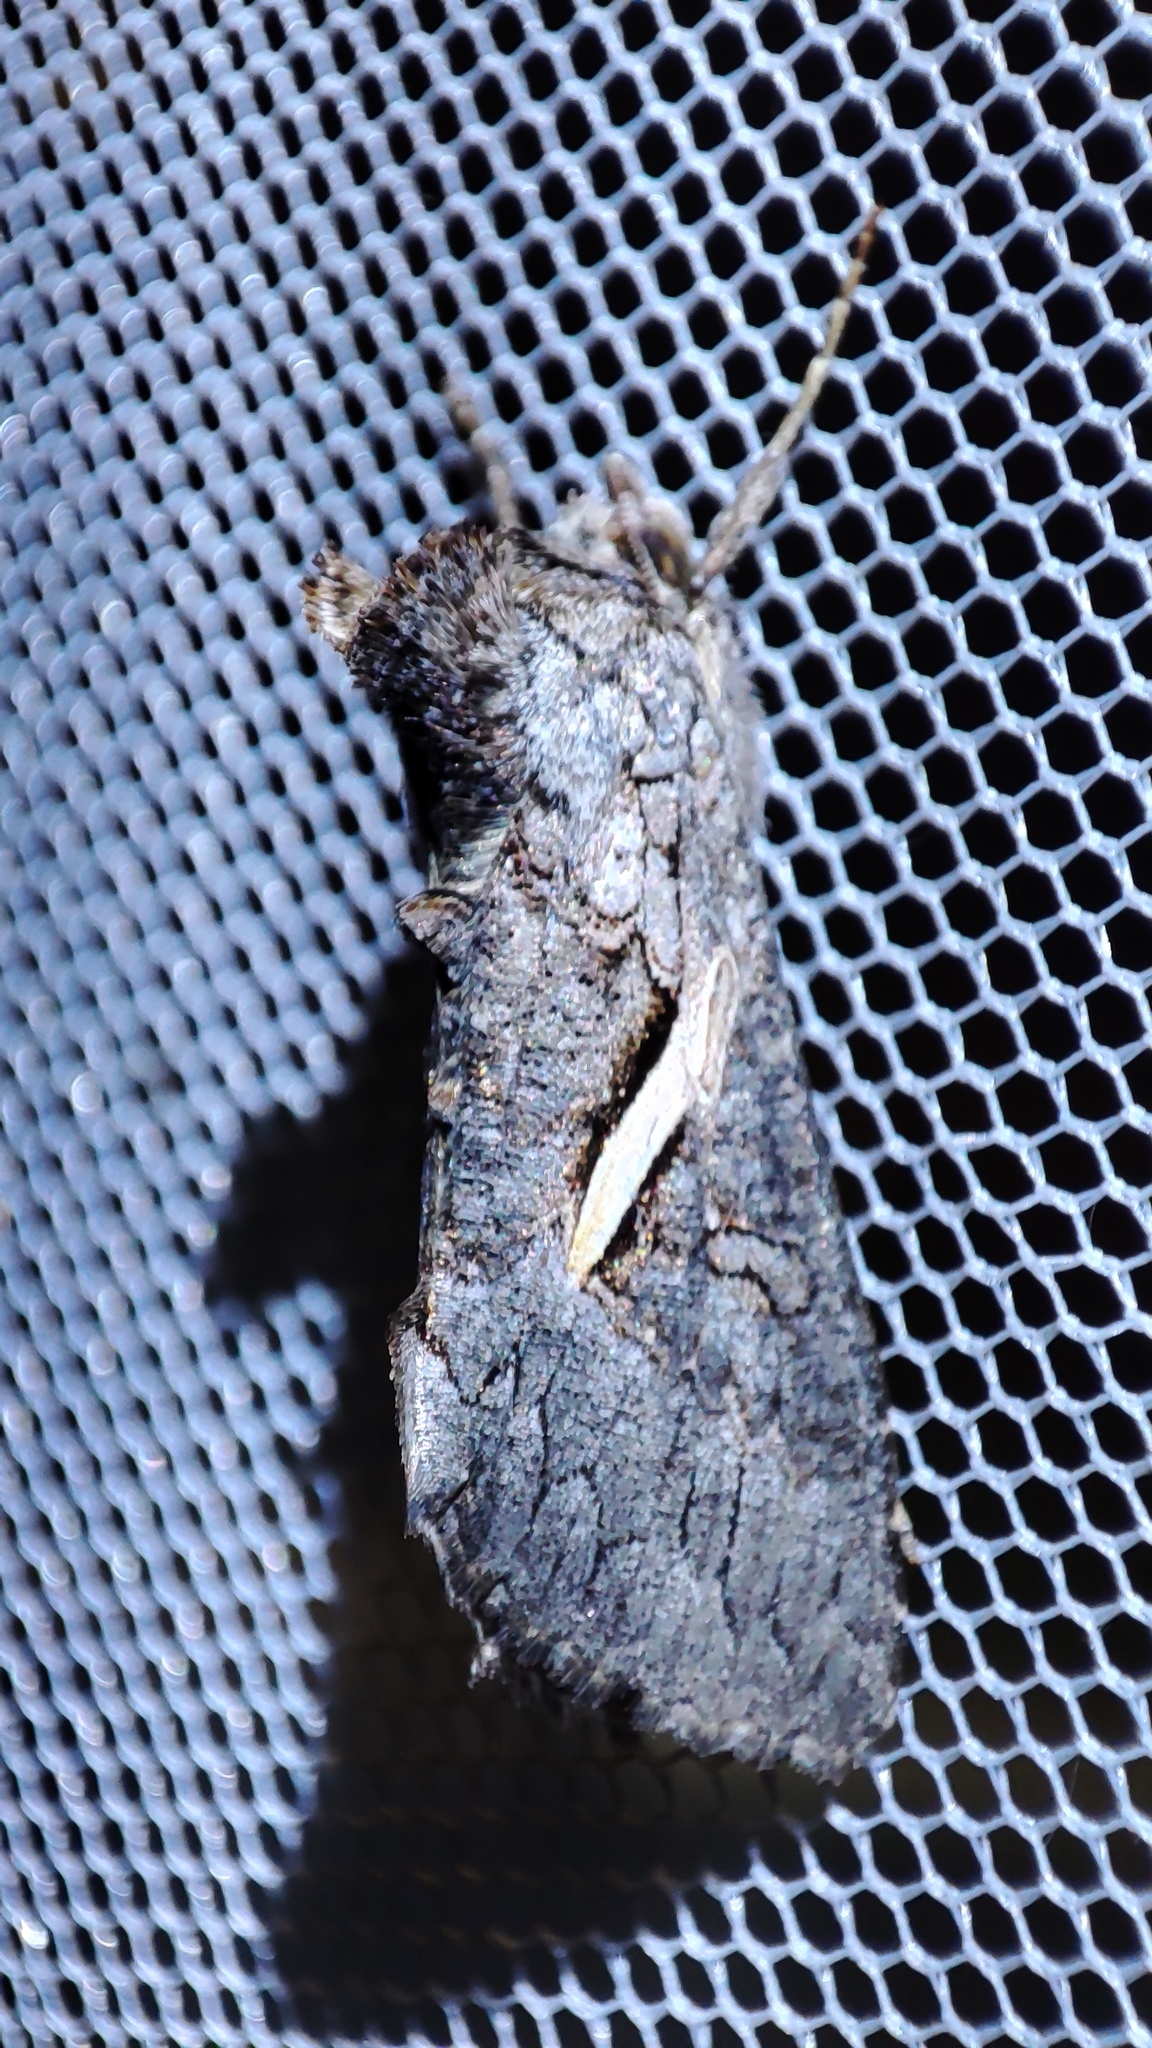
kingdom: Animalia
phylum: Arthropoda
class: Insecta
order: Lepidoptera
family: Noctuidae
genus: Vittaplusia
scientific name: Vittaplusia vittata
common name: Streaked plusia
